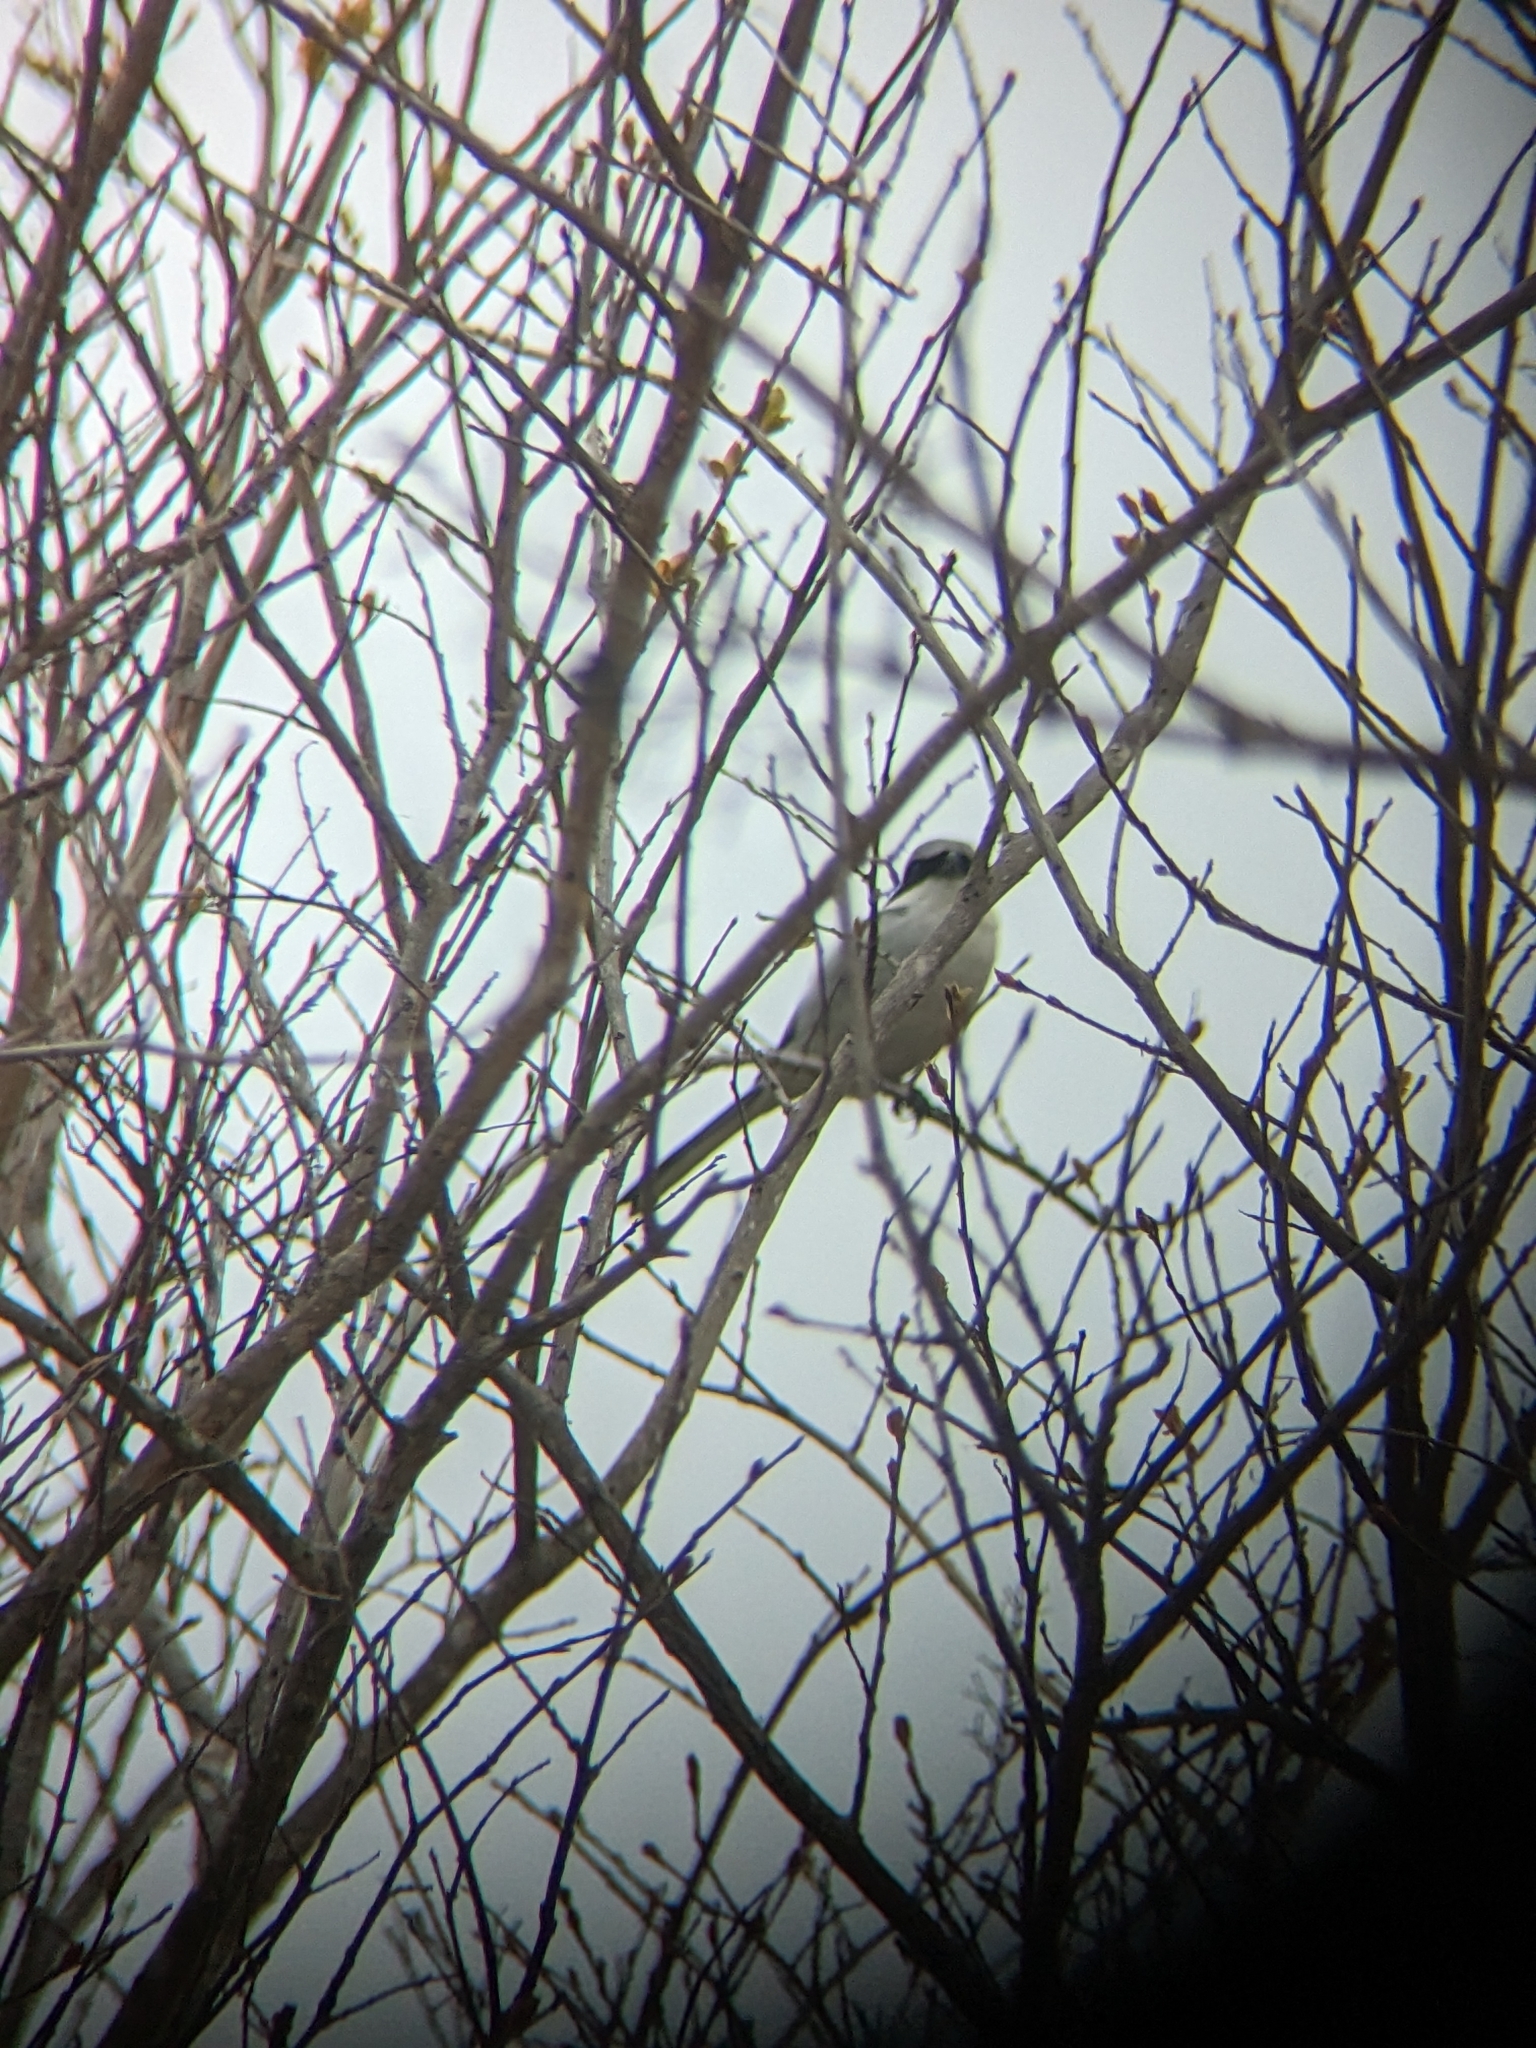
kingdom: Animalia
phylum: Chordata
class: Aves
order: Passeriformes
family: Laniidae
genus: Lanius
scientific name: Lanius ludovicianus
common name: Loggerhead shrike
